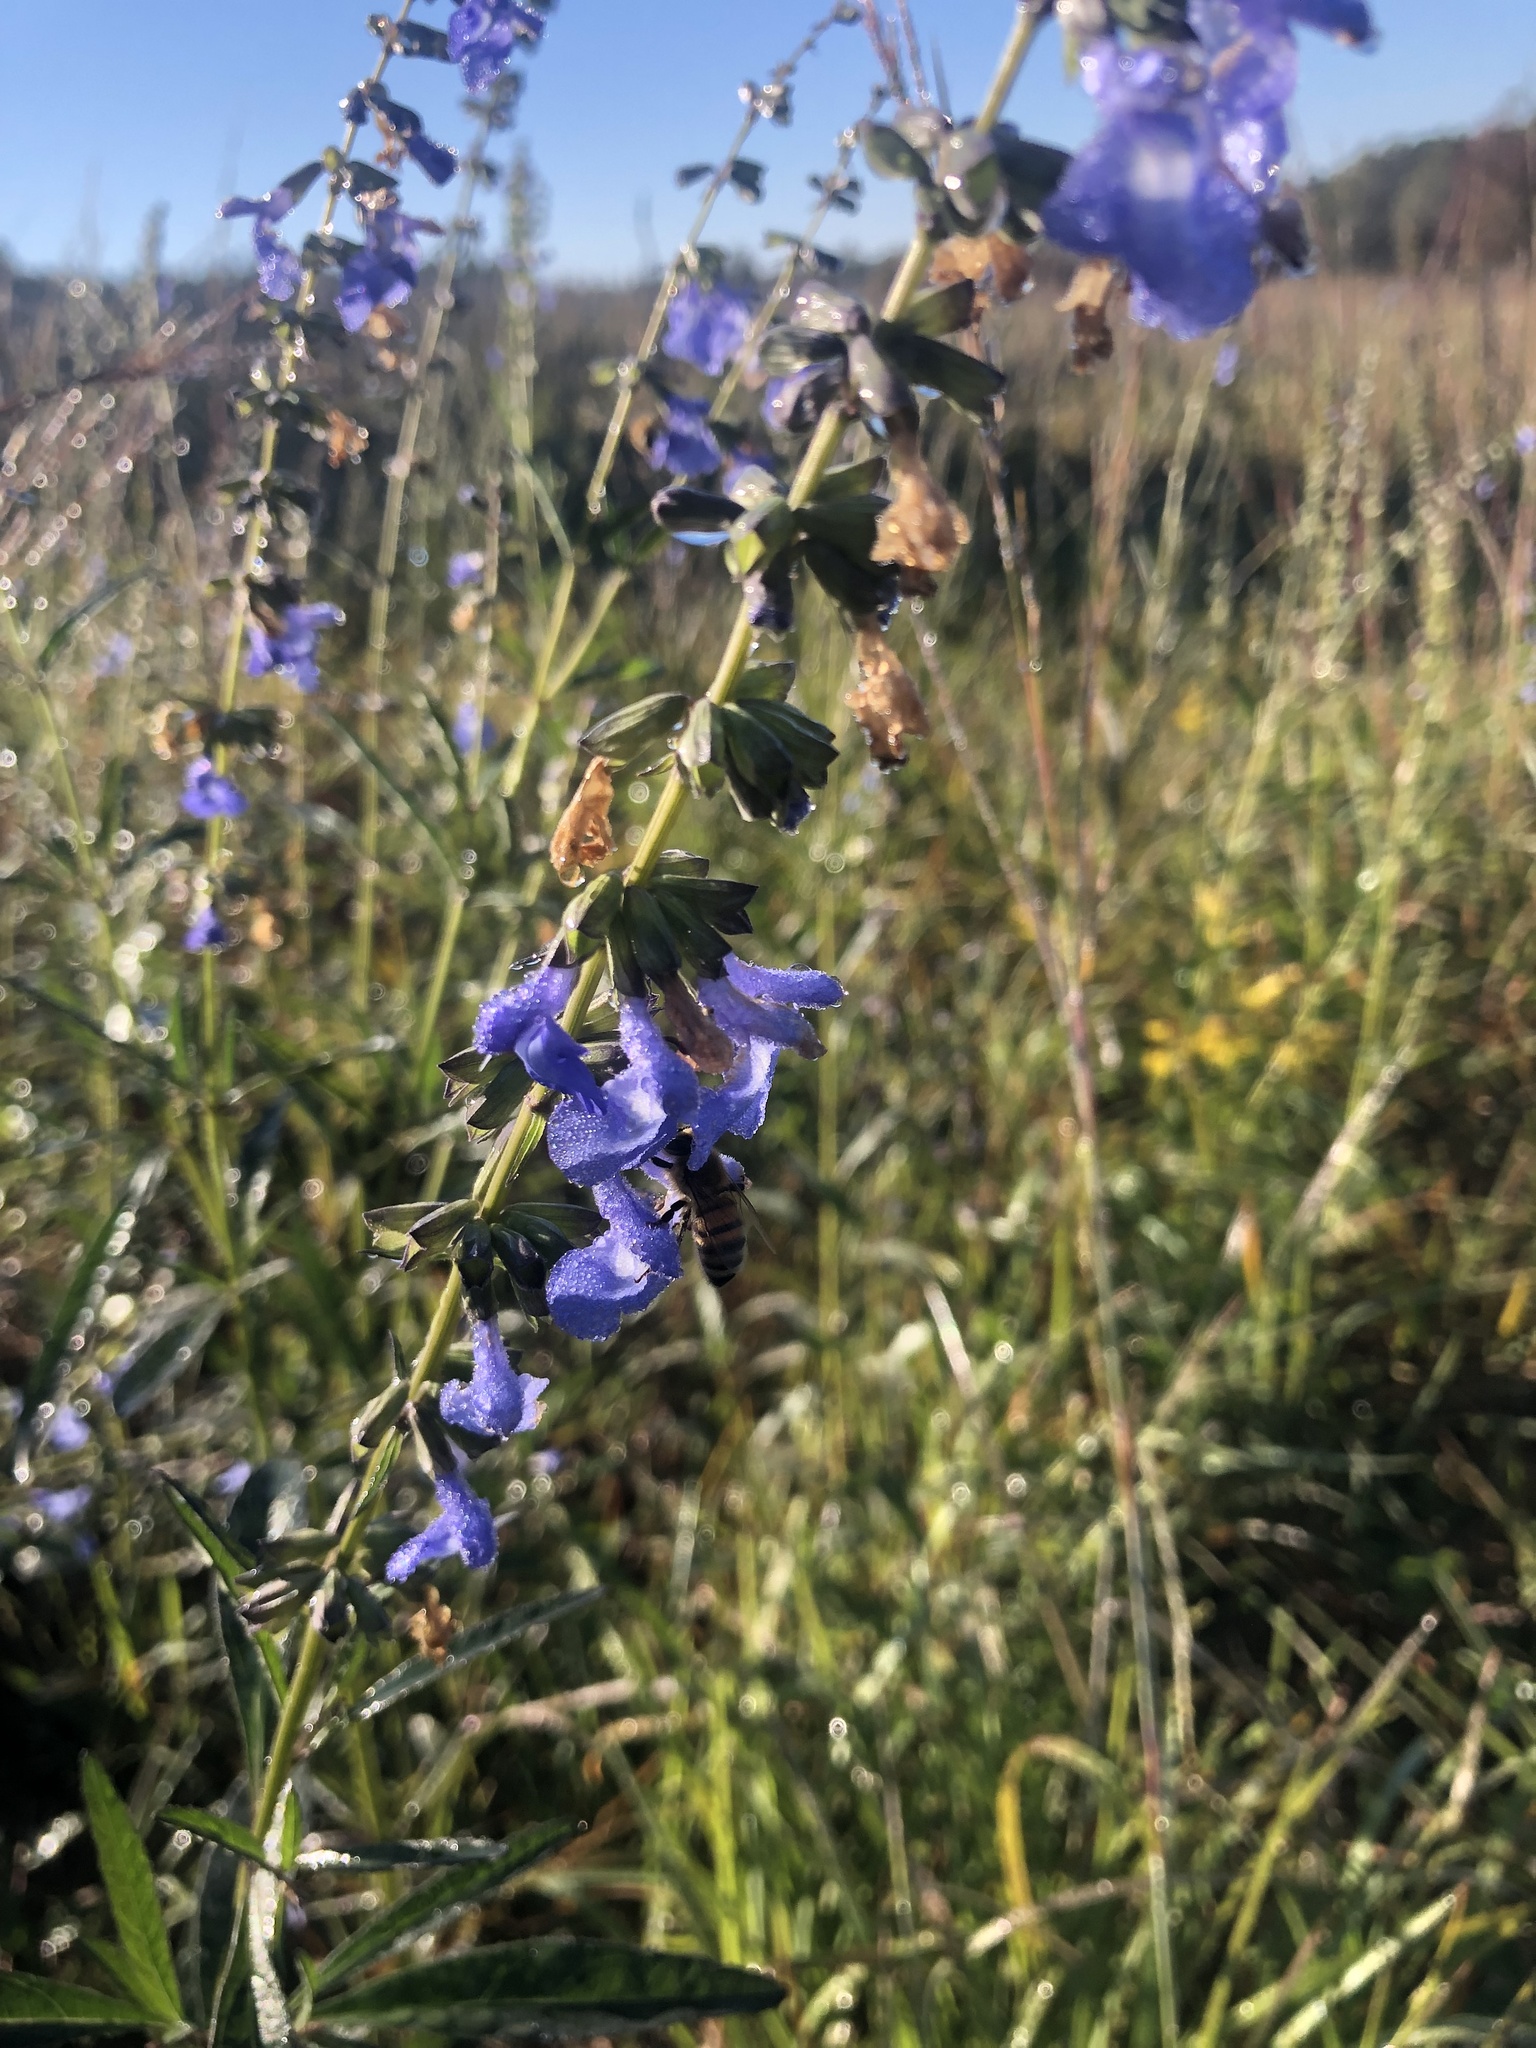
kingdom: Plantae
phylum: Tracheophyta
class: Magnoliopsida
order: Lamiales
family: Lamiaceae
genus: Salvia
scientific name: Salvia azurea
